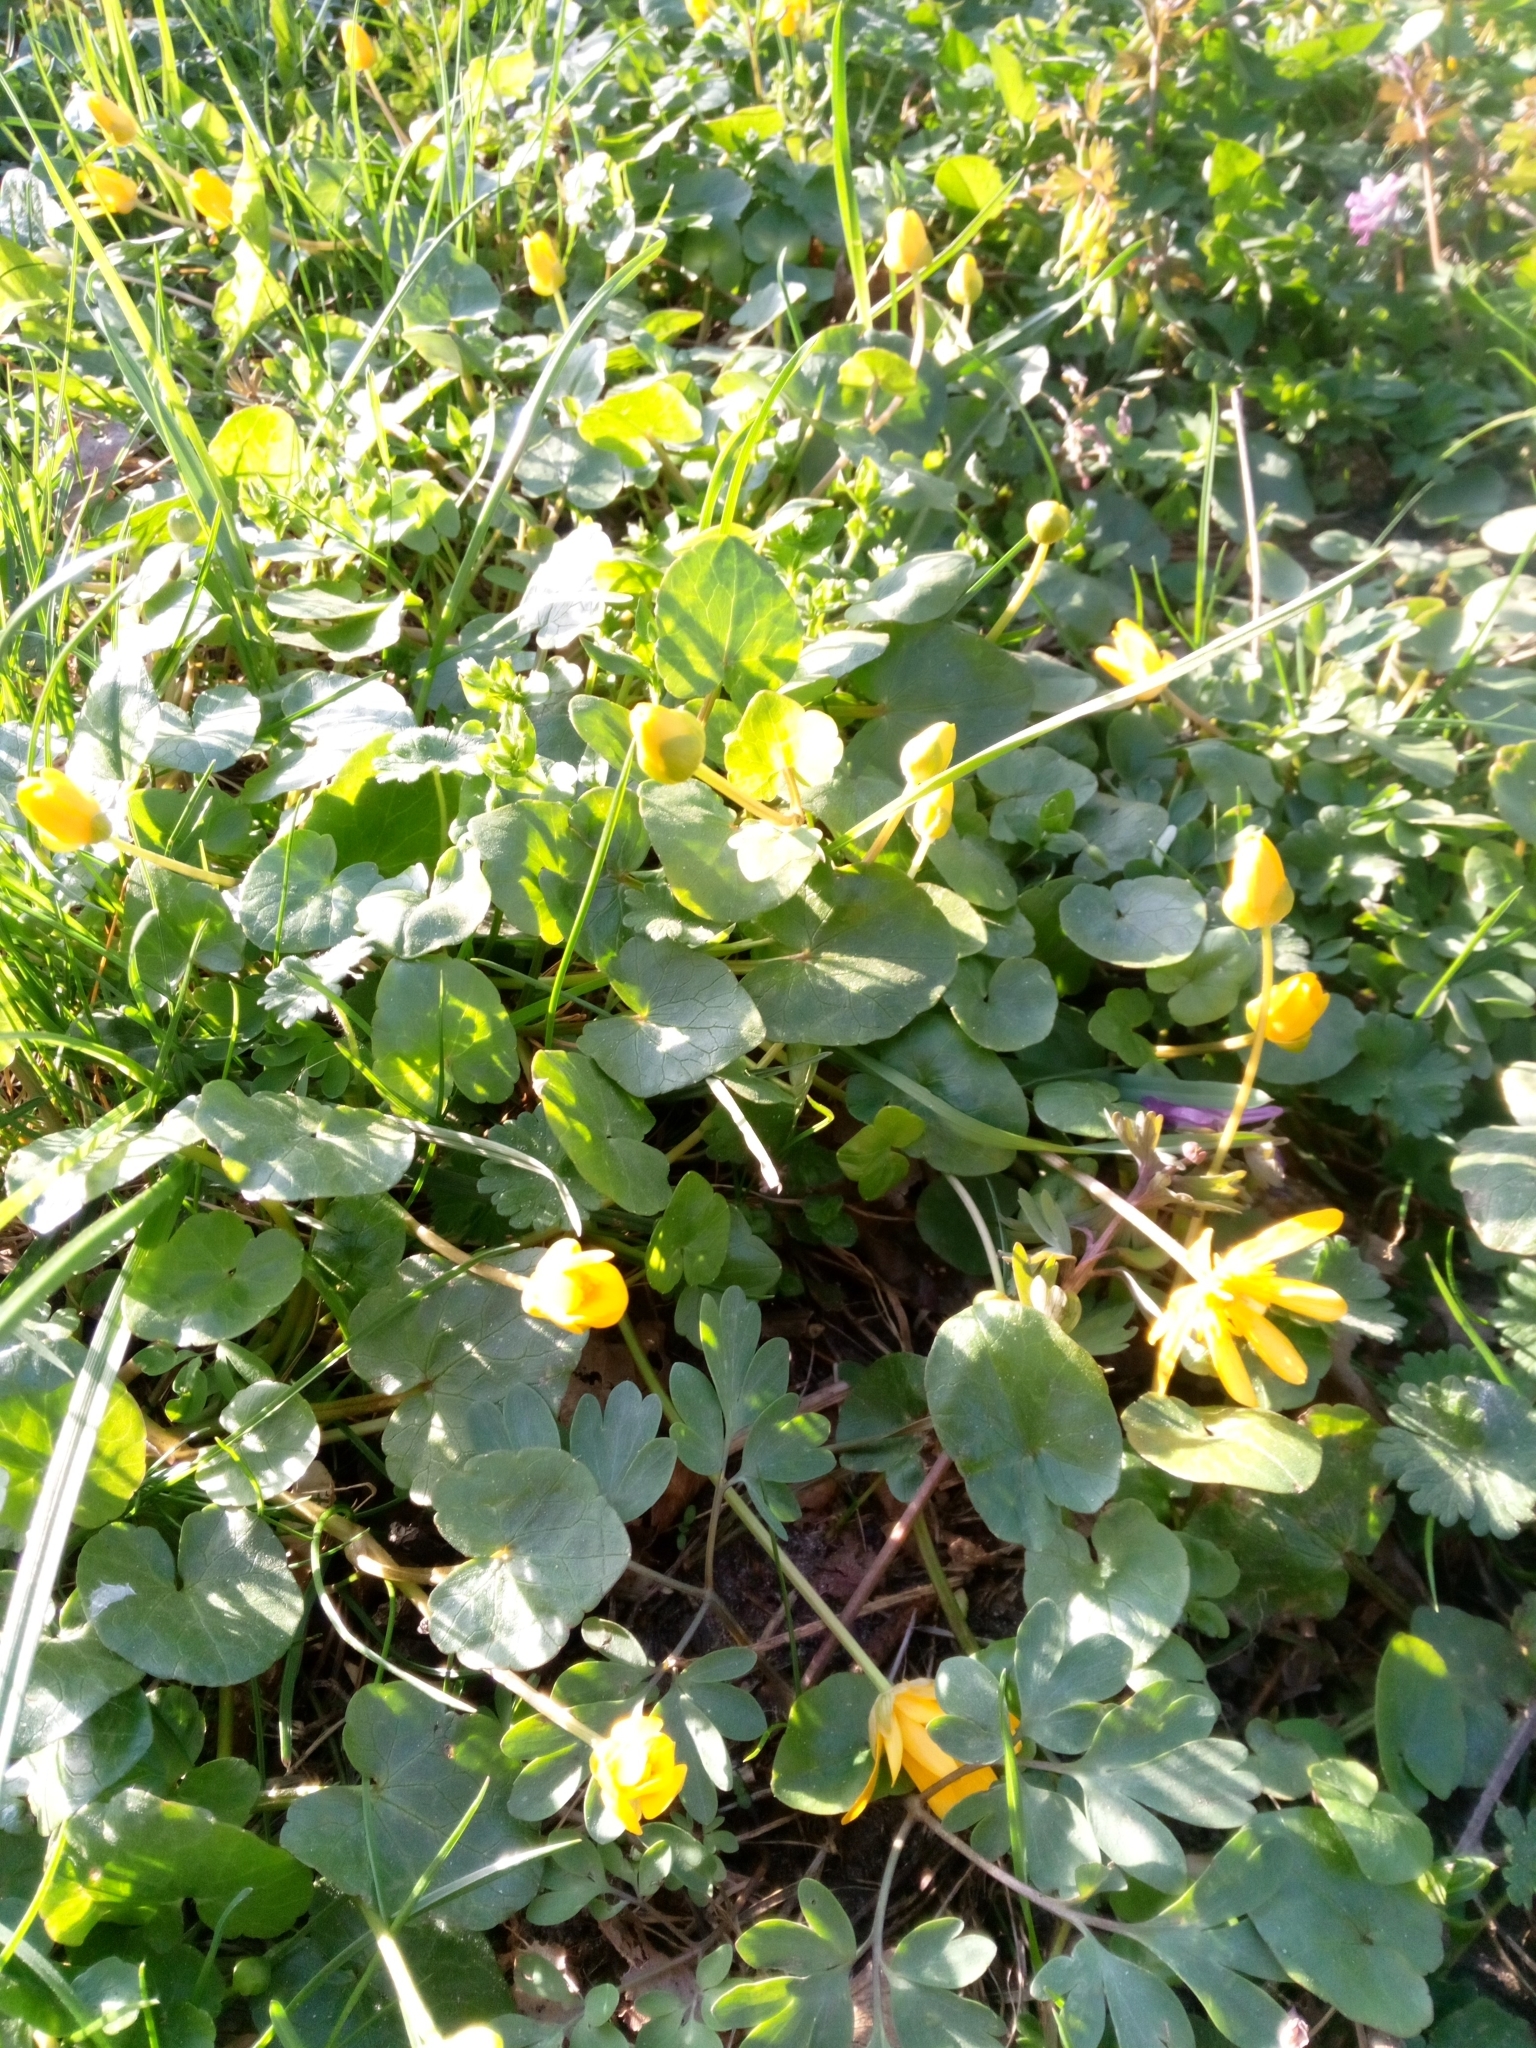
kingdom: Plantae
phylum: Tracheophyta
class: Magnoliopsida
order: Ranunculales
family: Ranunculaceae
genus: Ficaria
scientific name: Ficaria verna
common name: Lesser celandine
